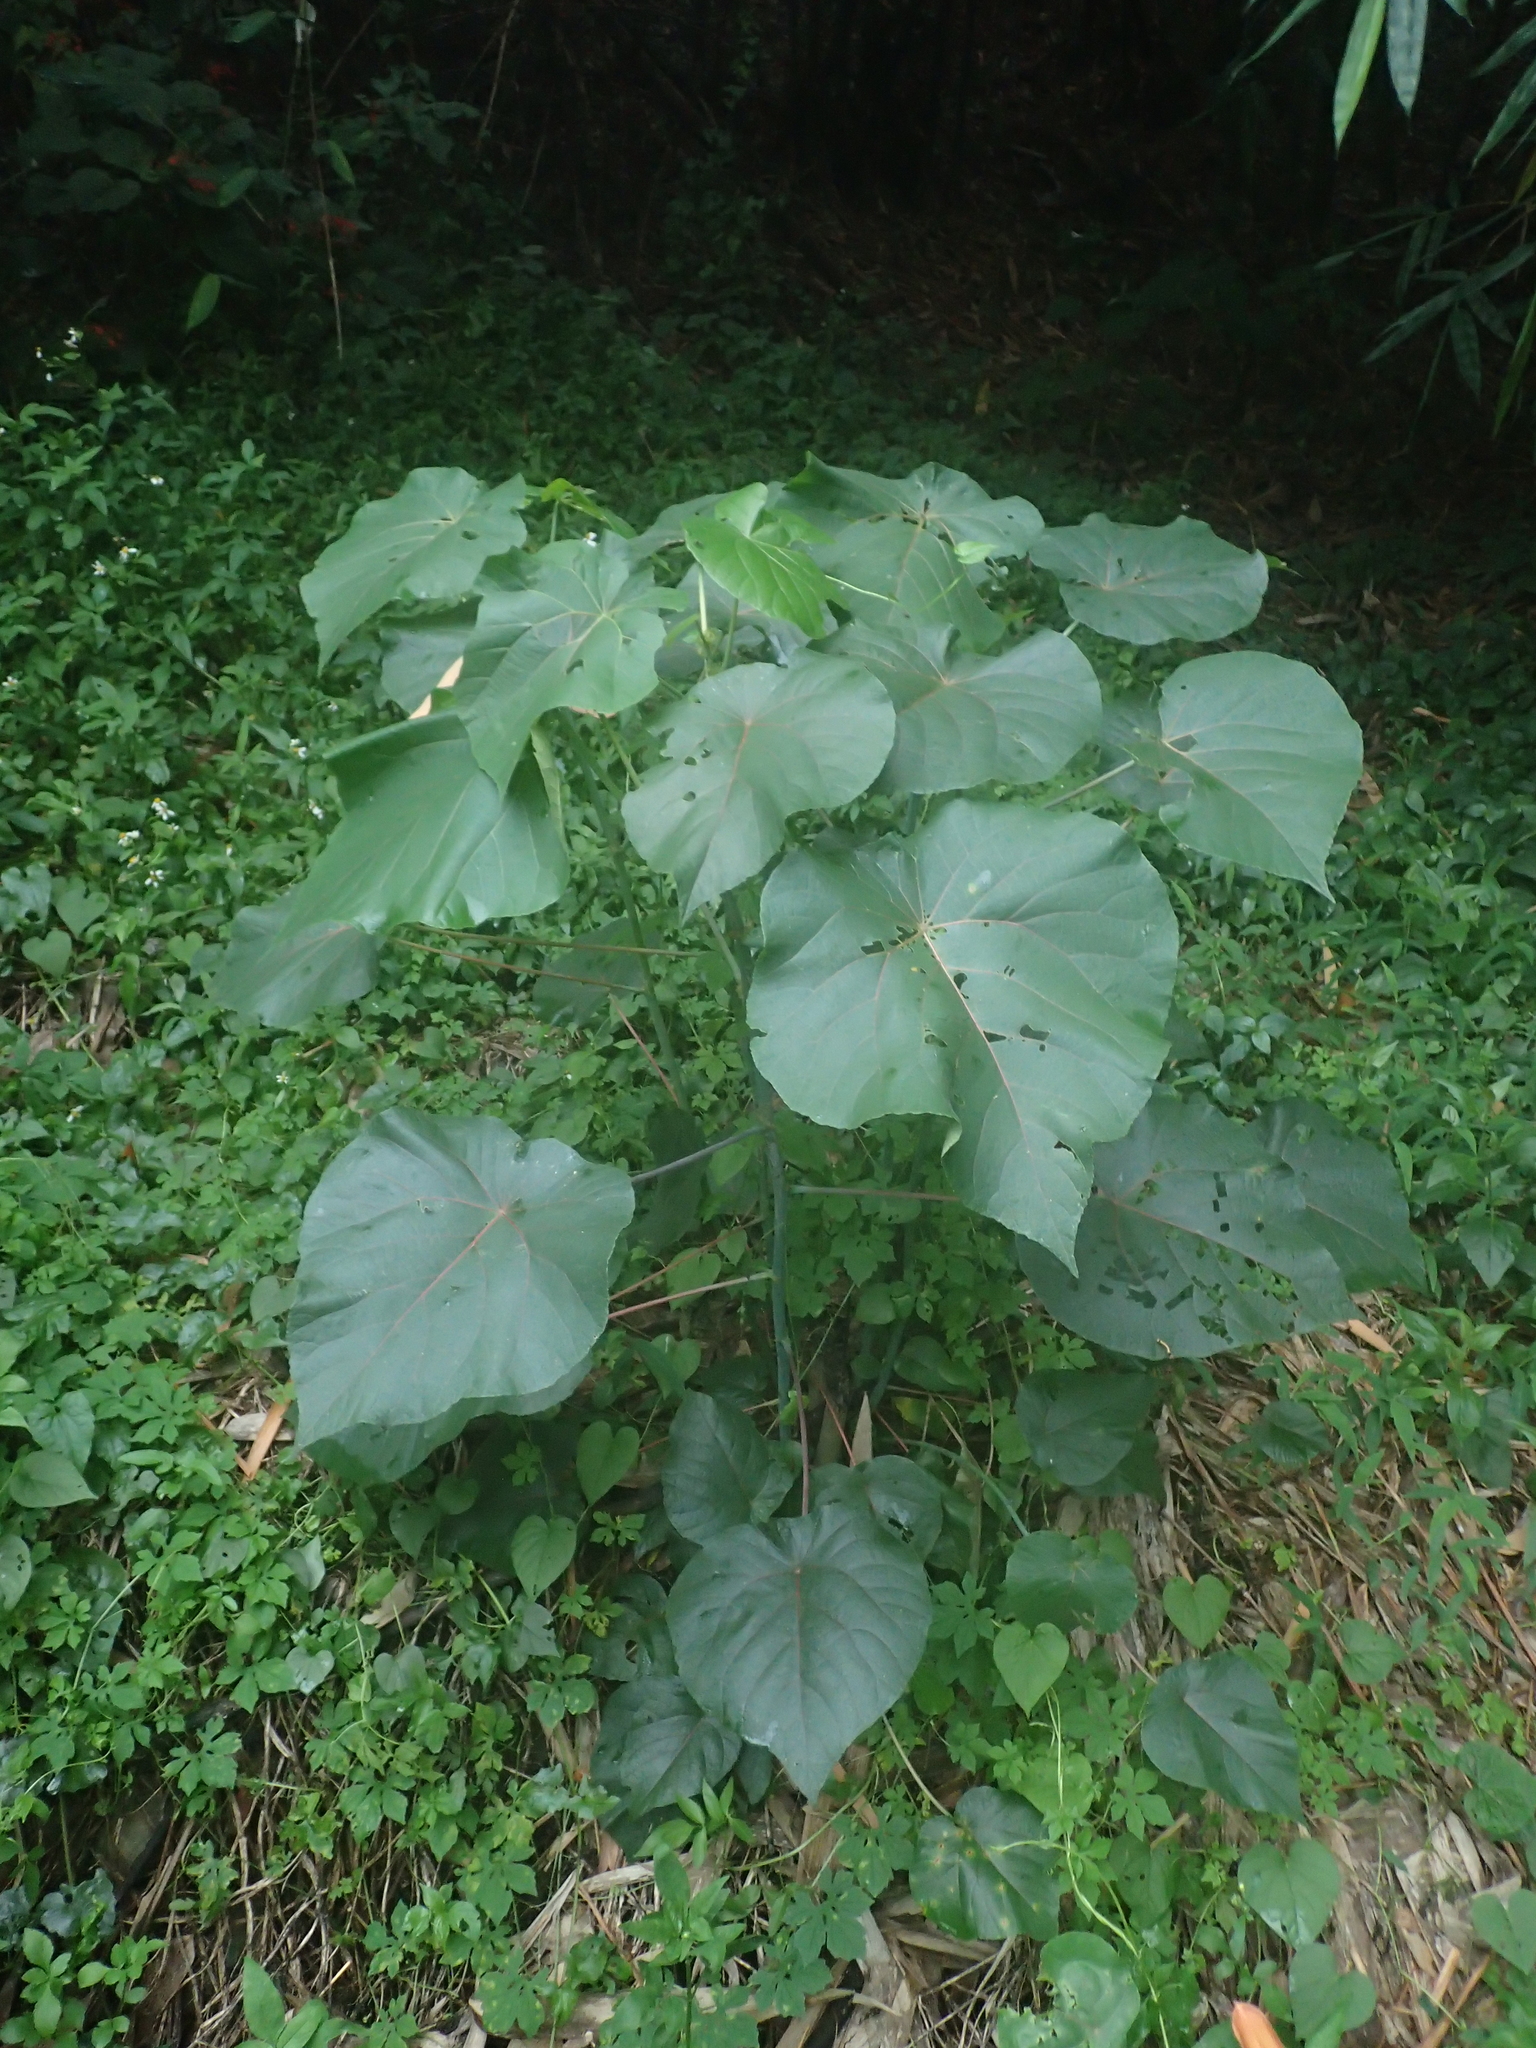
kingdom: Plantae
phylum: Tracheophyta
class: Magnoliopsida
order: Malpighiales
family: Euphorbiaceae
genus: Macaranga
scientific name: Macaranga tanarius
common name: Parasol leaf tree
